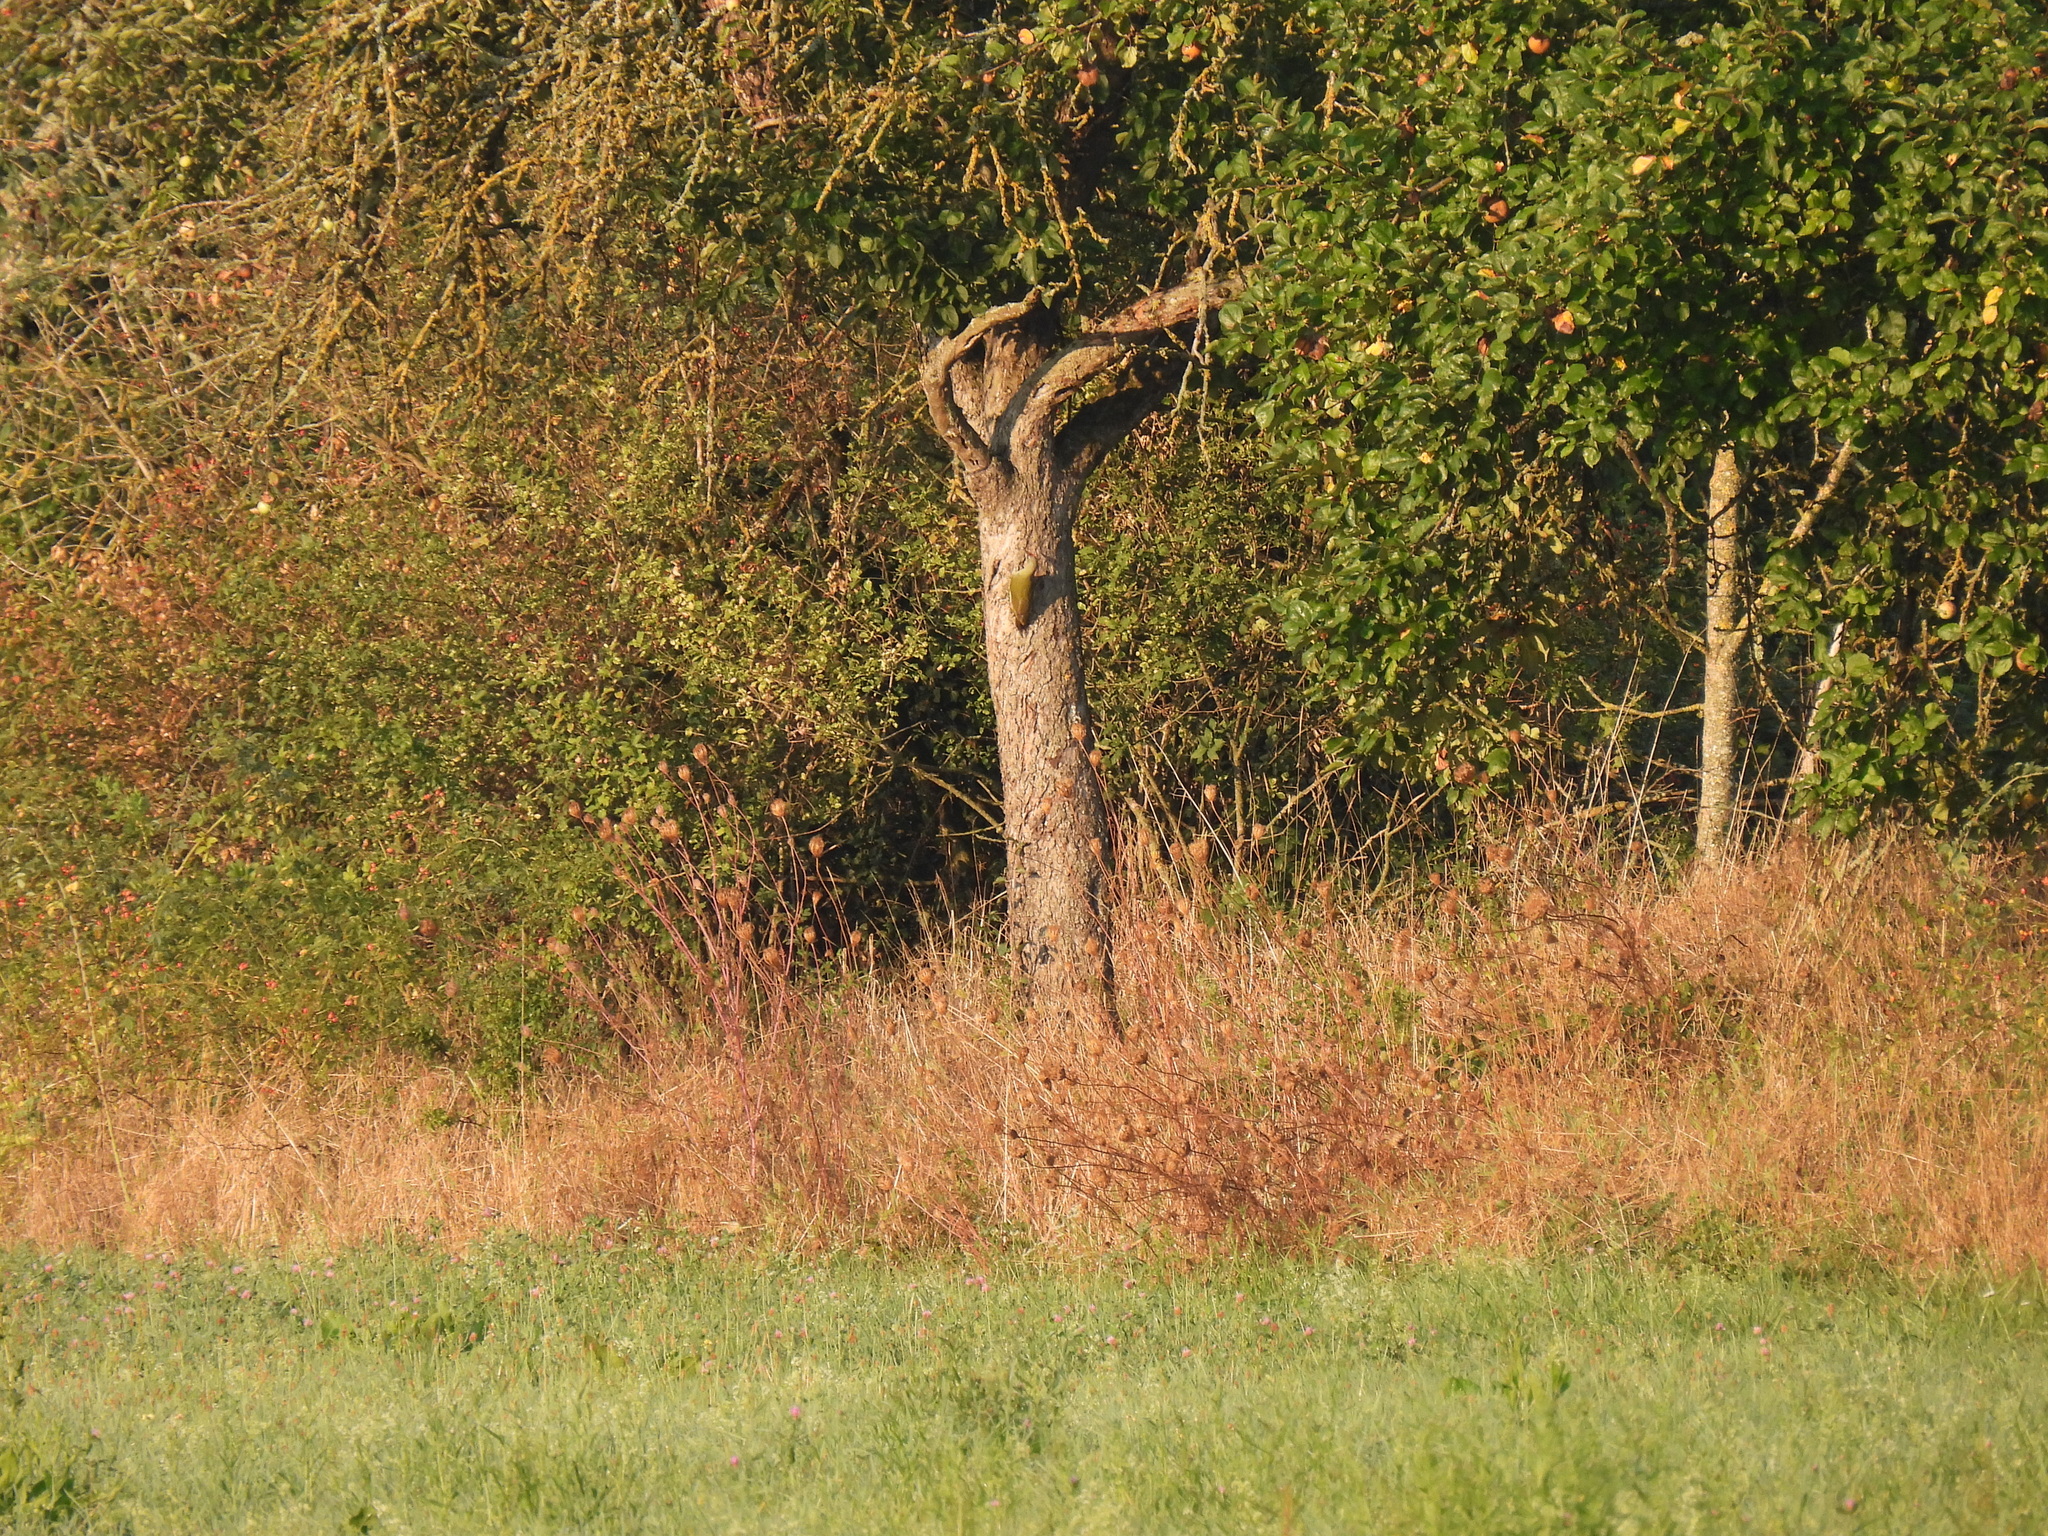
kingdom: Animalia
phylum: Chordata
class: Aves
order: Piciformes
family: Picidae
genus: Picus
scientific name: Picus viridis
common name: European green woodpecker
